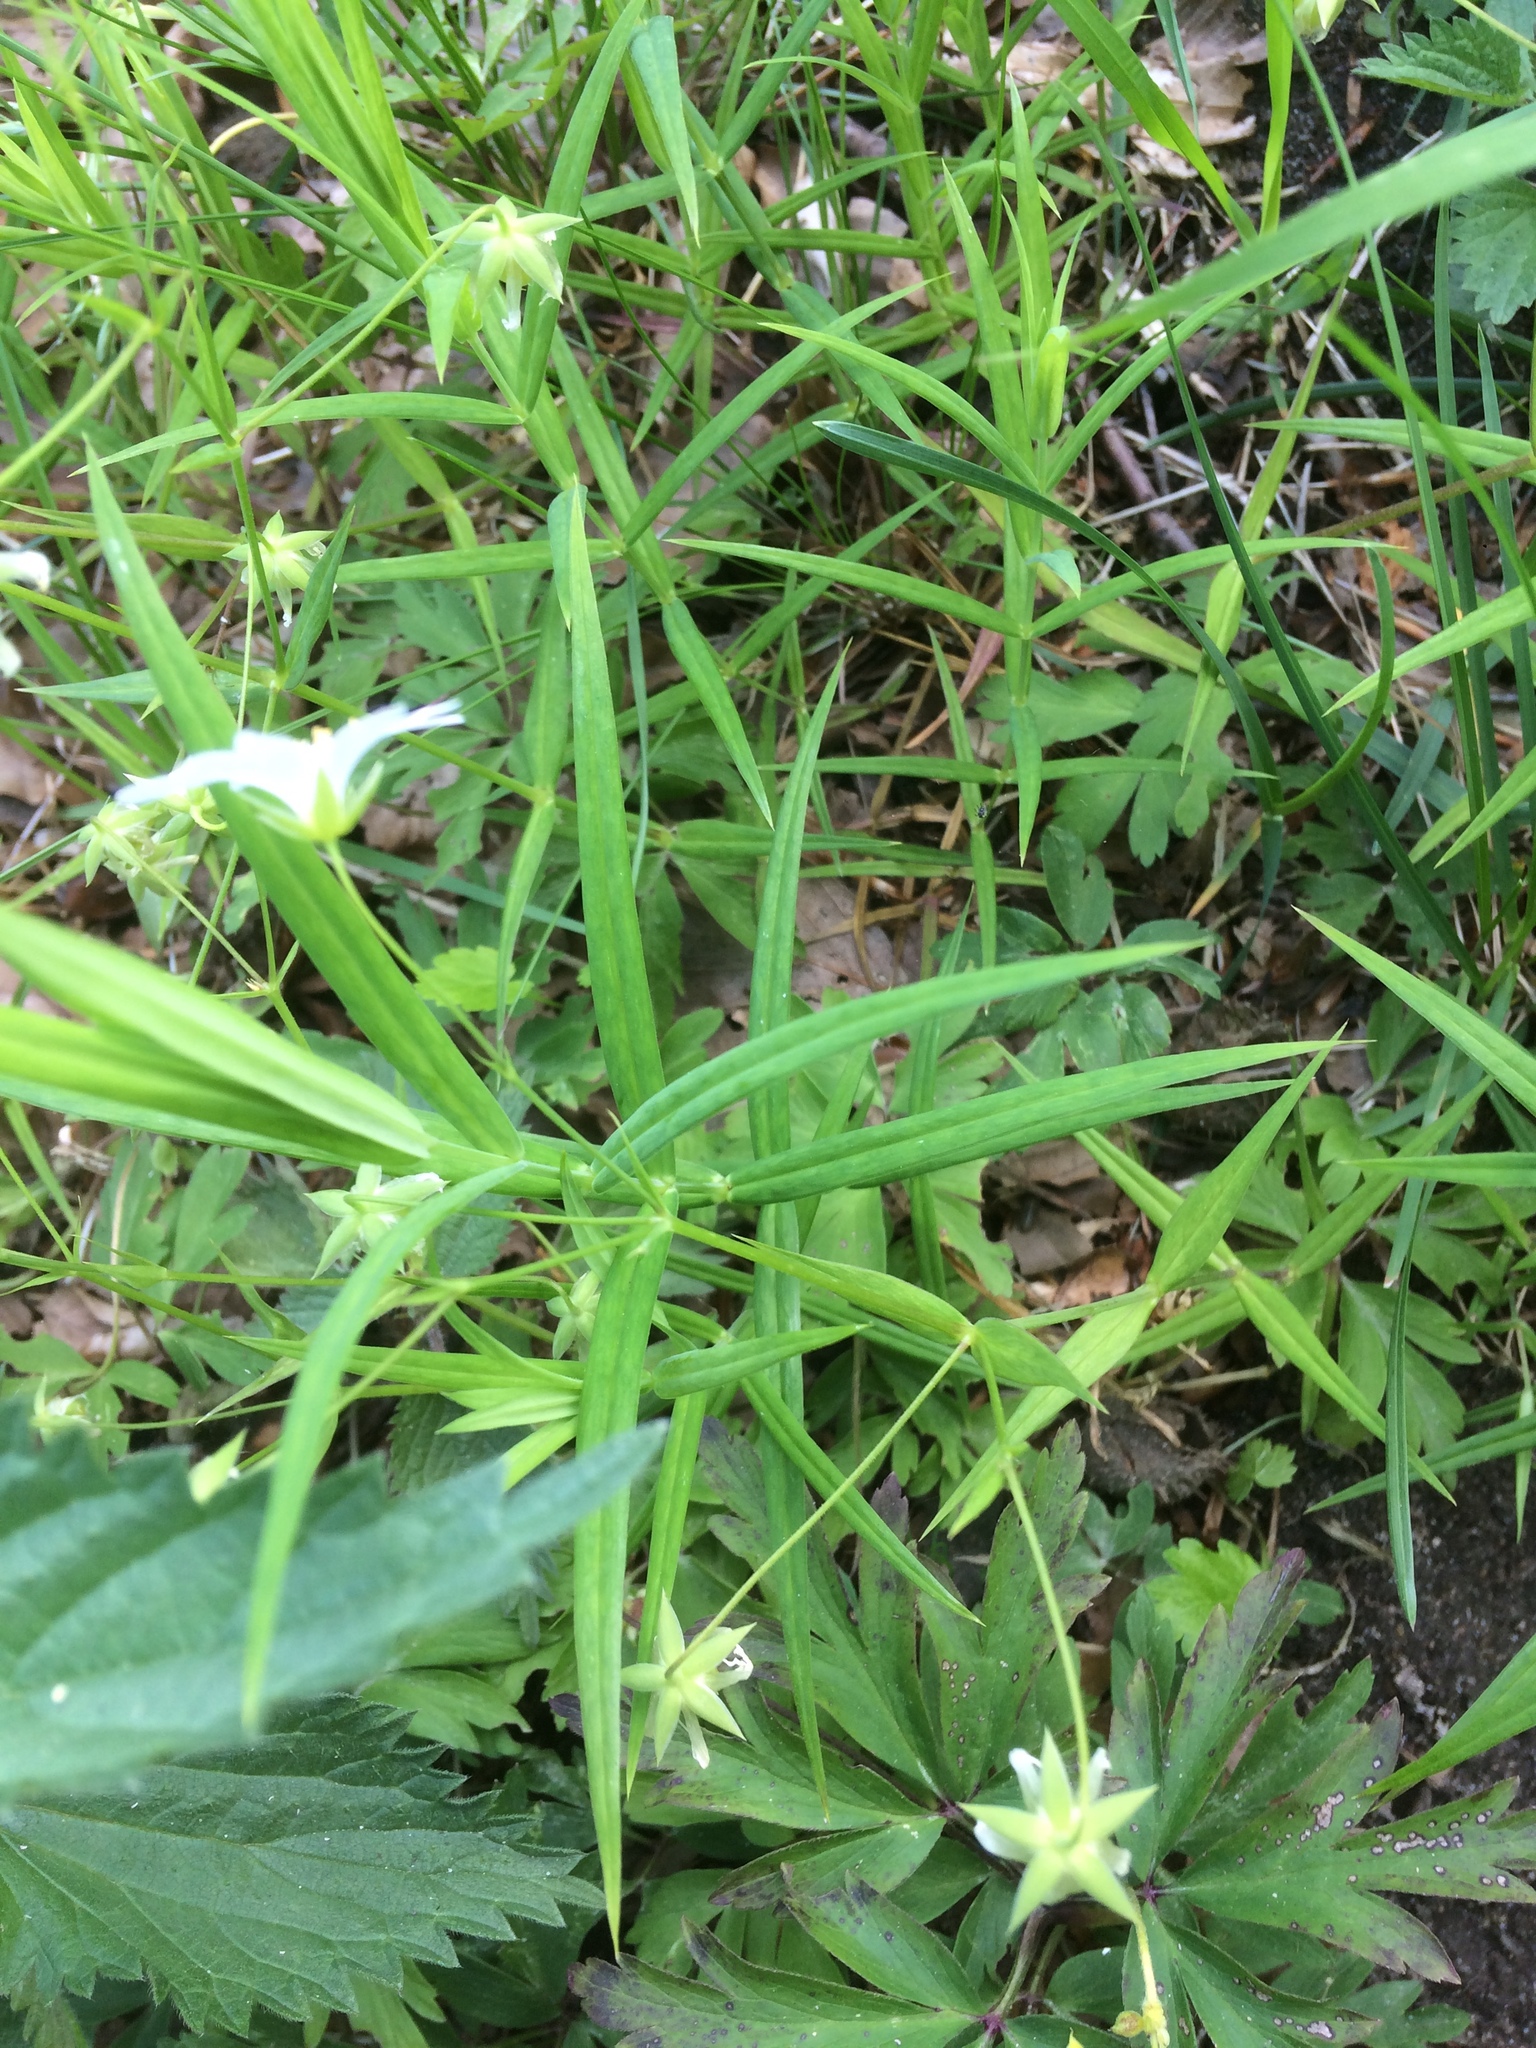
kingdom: Plantae
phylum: Tracheophyta
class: Magnoliopsida
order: Caryophyllales
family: Caryophyllaceae
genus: Rabelera
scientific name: Rabelera holostea
